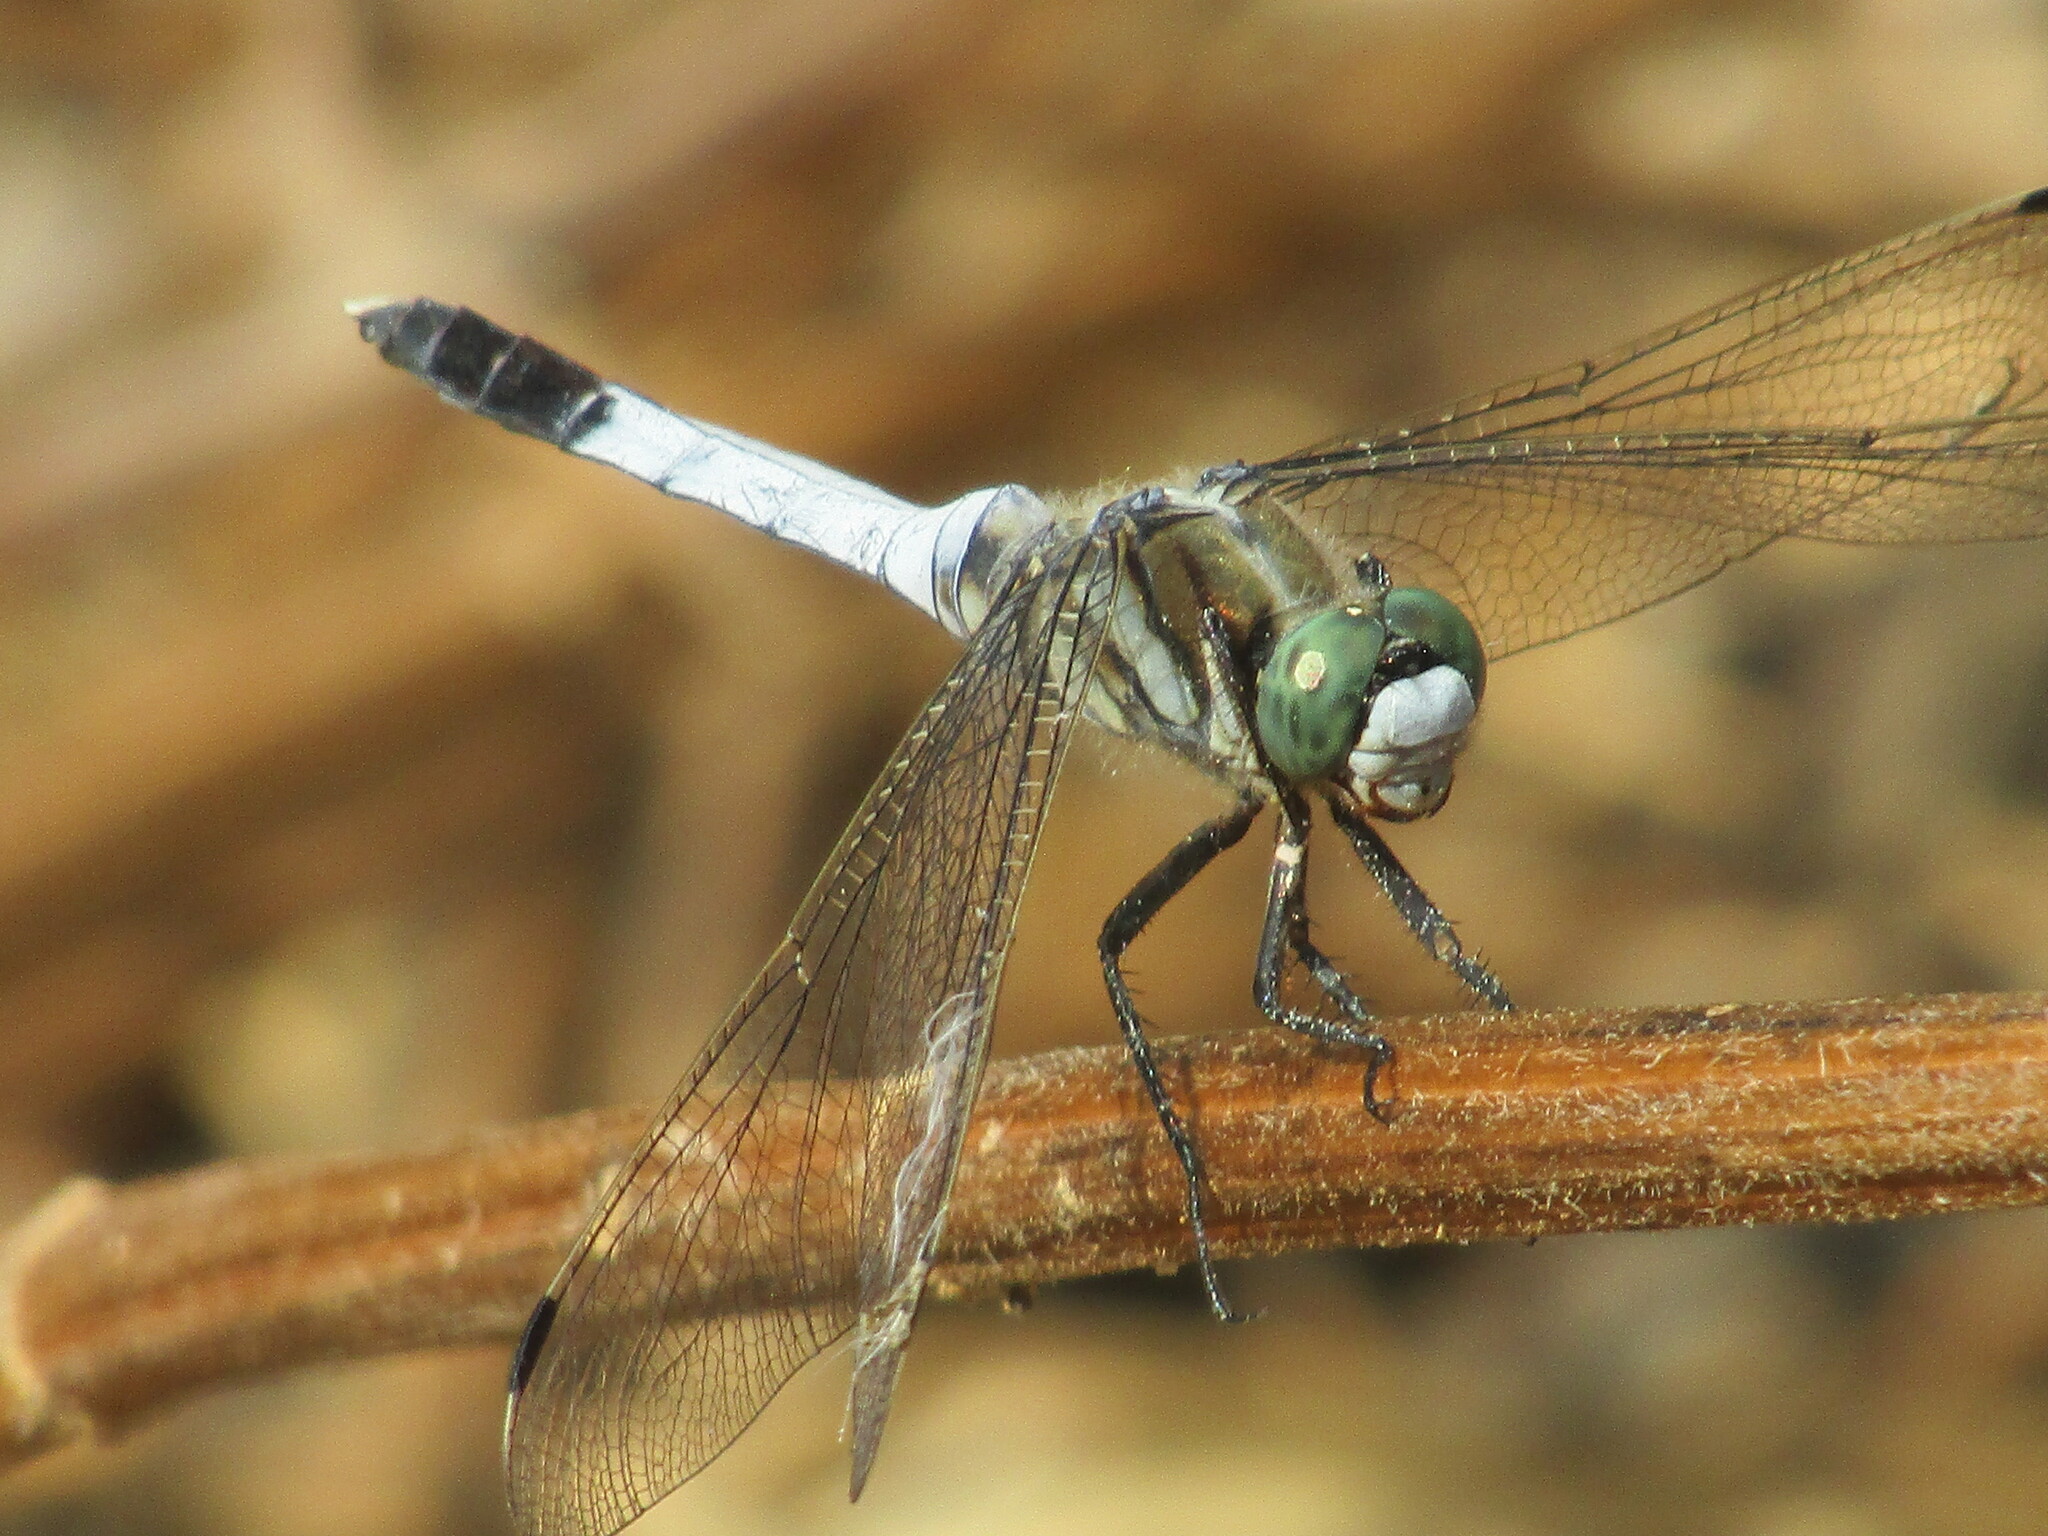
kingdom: Animalia
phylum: Arthropoda
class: Insecta
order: Odonata
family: Libellulidae
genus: Orthetrum
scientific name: Orthetrum albistylum
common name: White-tailed skimmer
